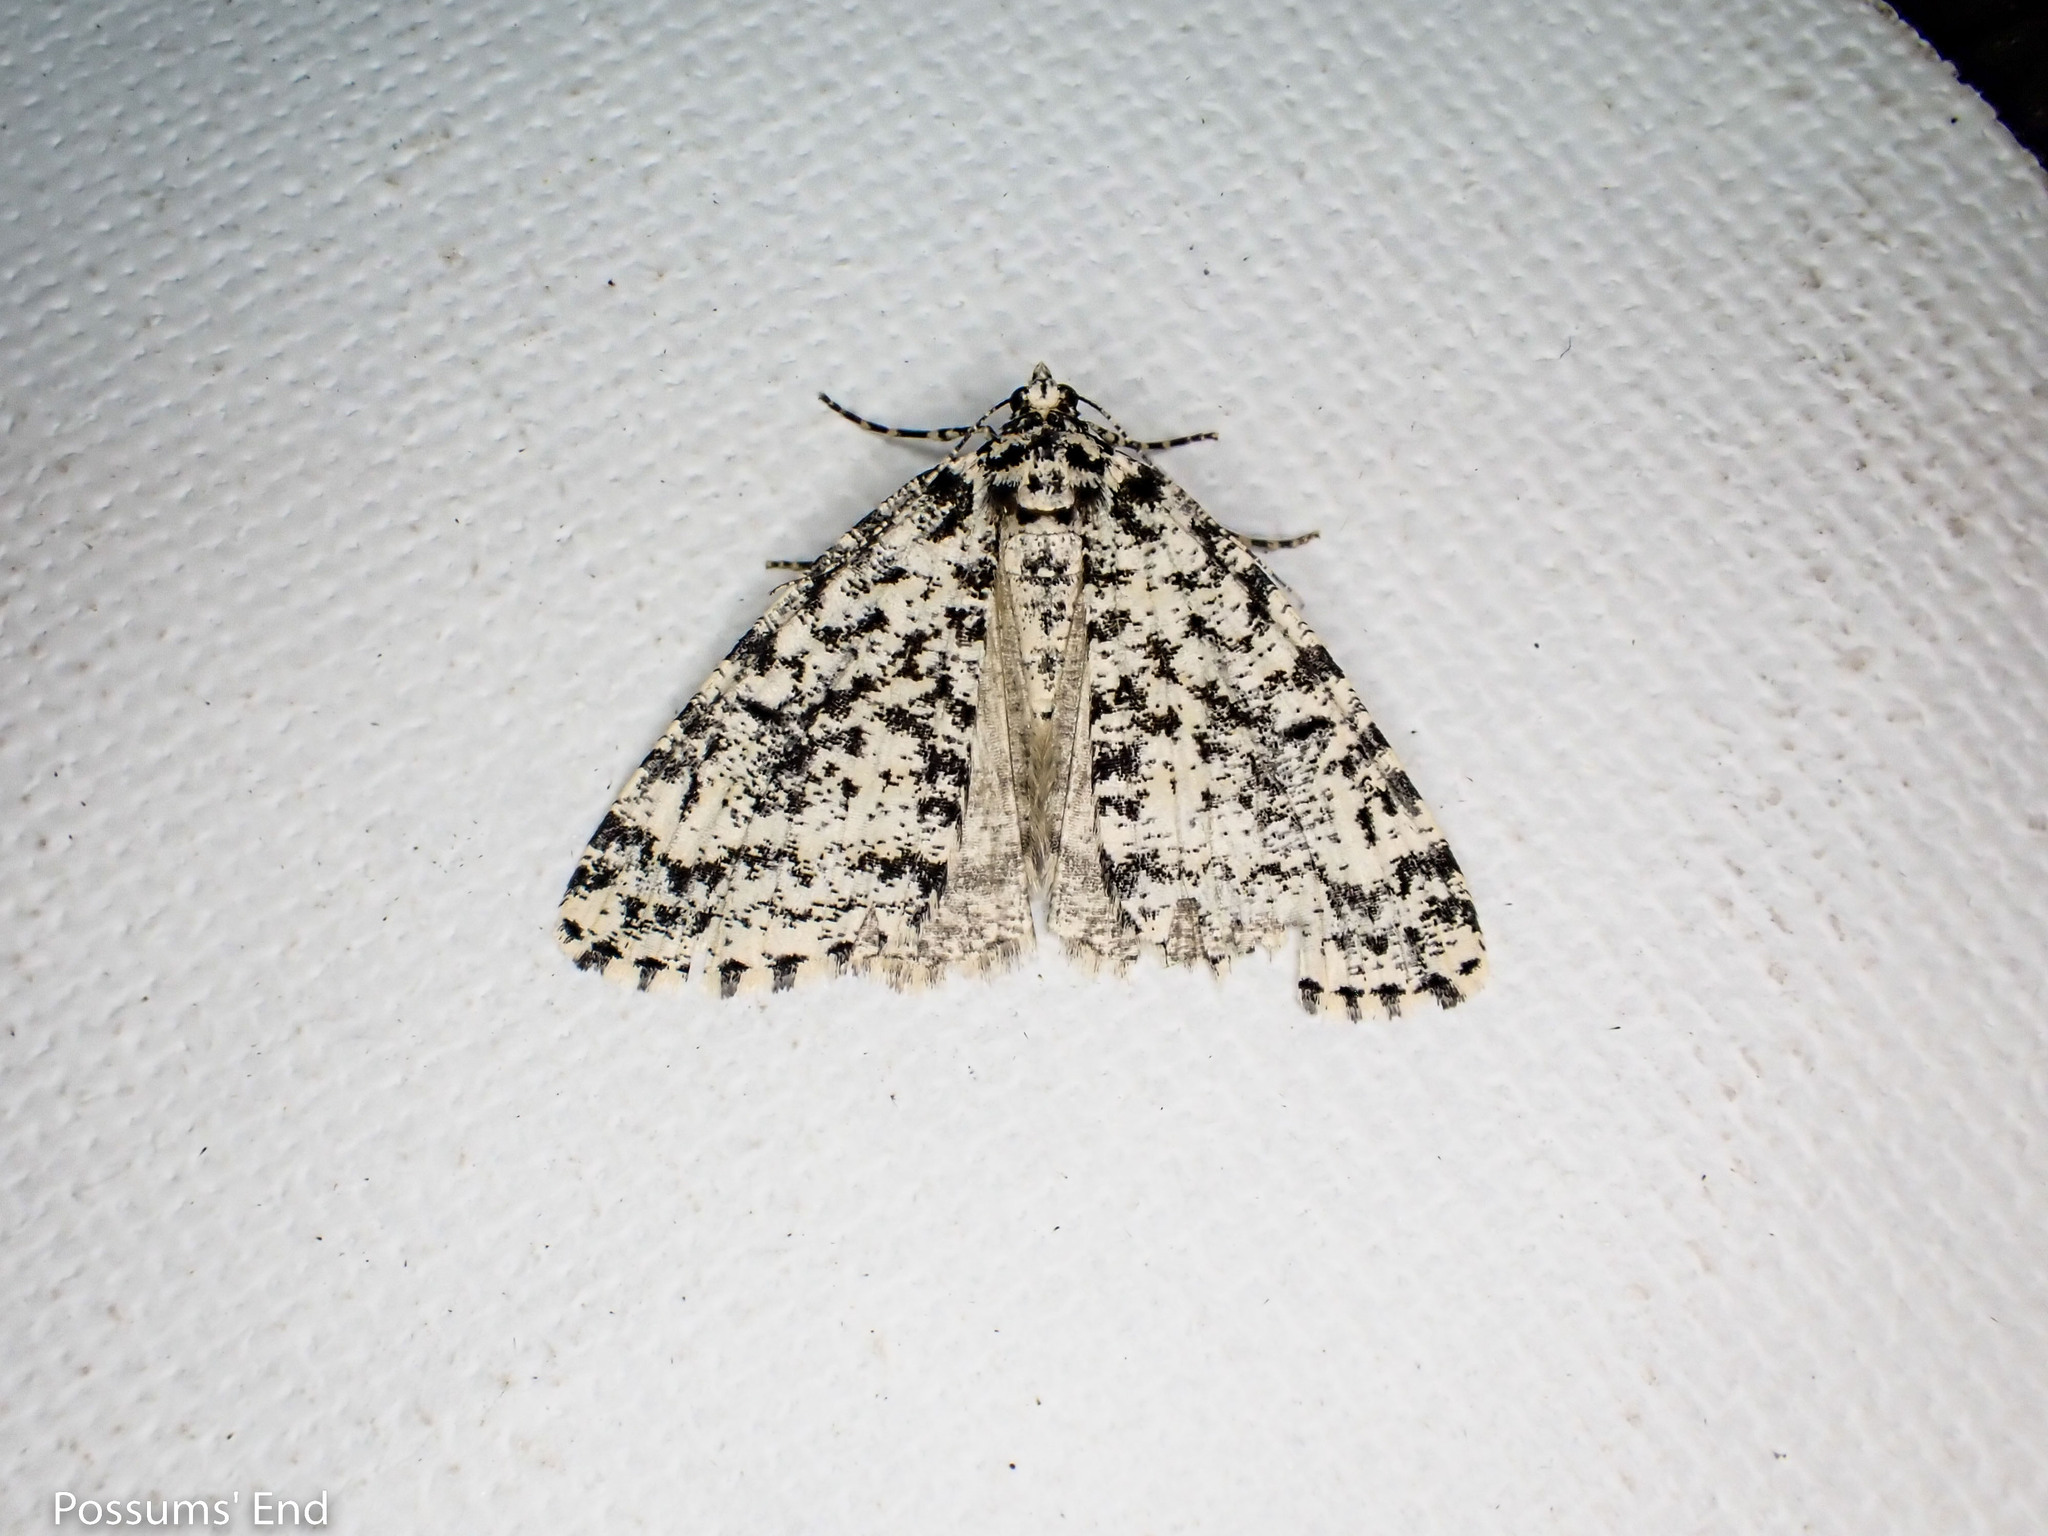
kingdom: Animalia
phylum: Arthropoda
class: Insecta
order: Lepidoptera
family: Geometridae
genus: Pseudocoremia
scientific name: Pseudocoremia monacha
